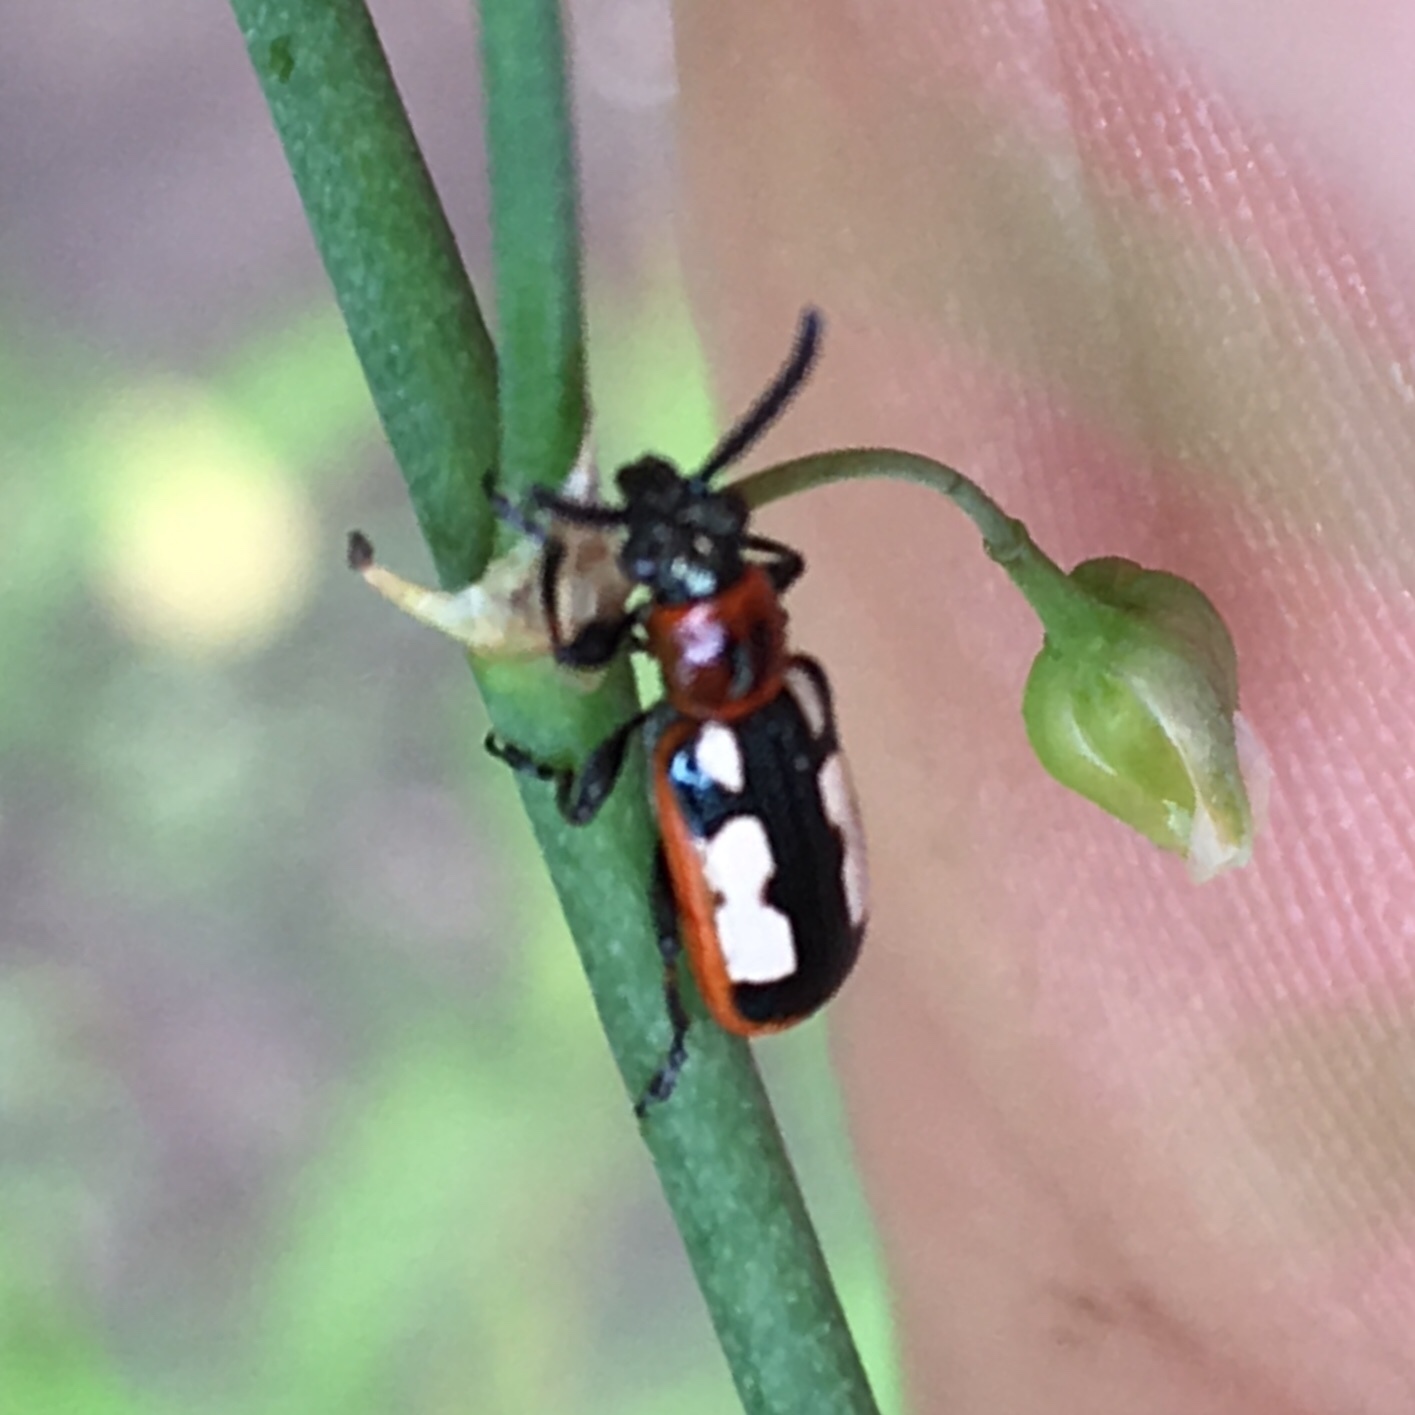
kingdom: Animalia
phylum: Arthropoda
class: Insecta
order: Coleoptera
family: Chrysomelidae
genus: Crioceris
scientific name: Crioceris asparagi
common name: Asparagus beetle
